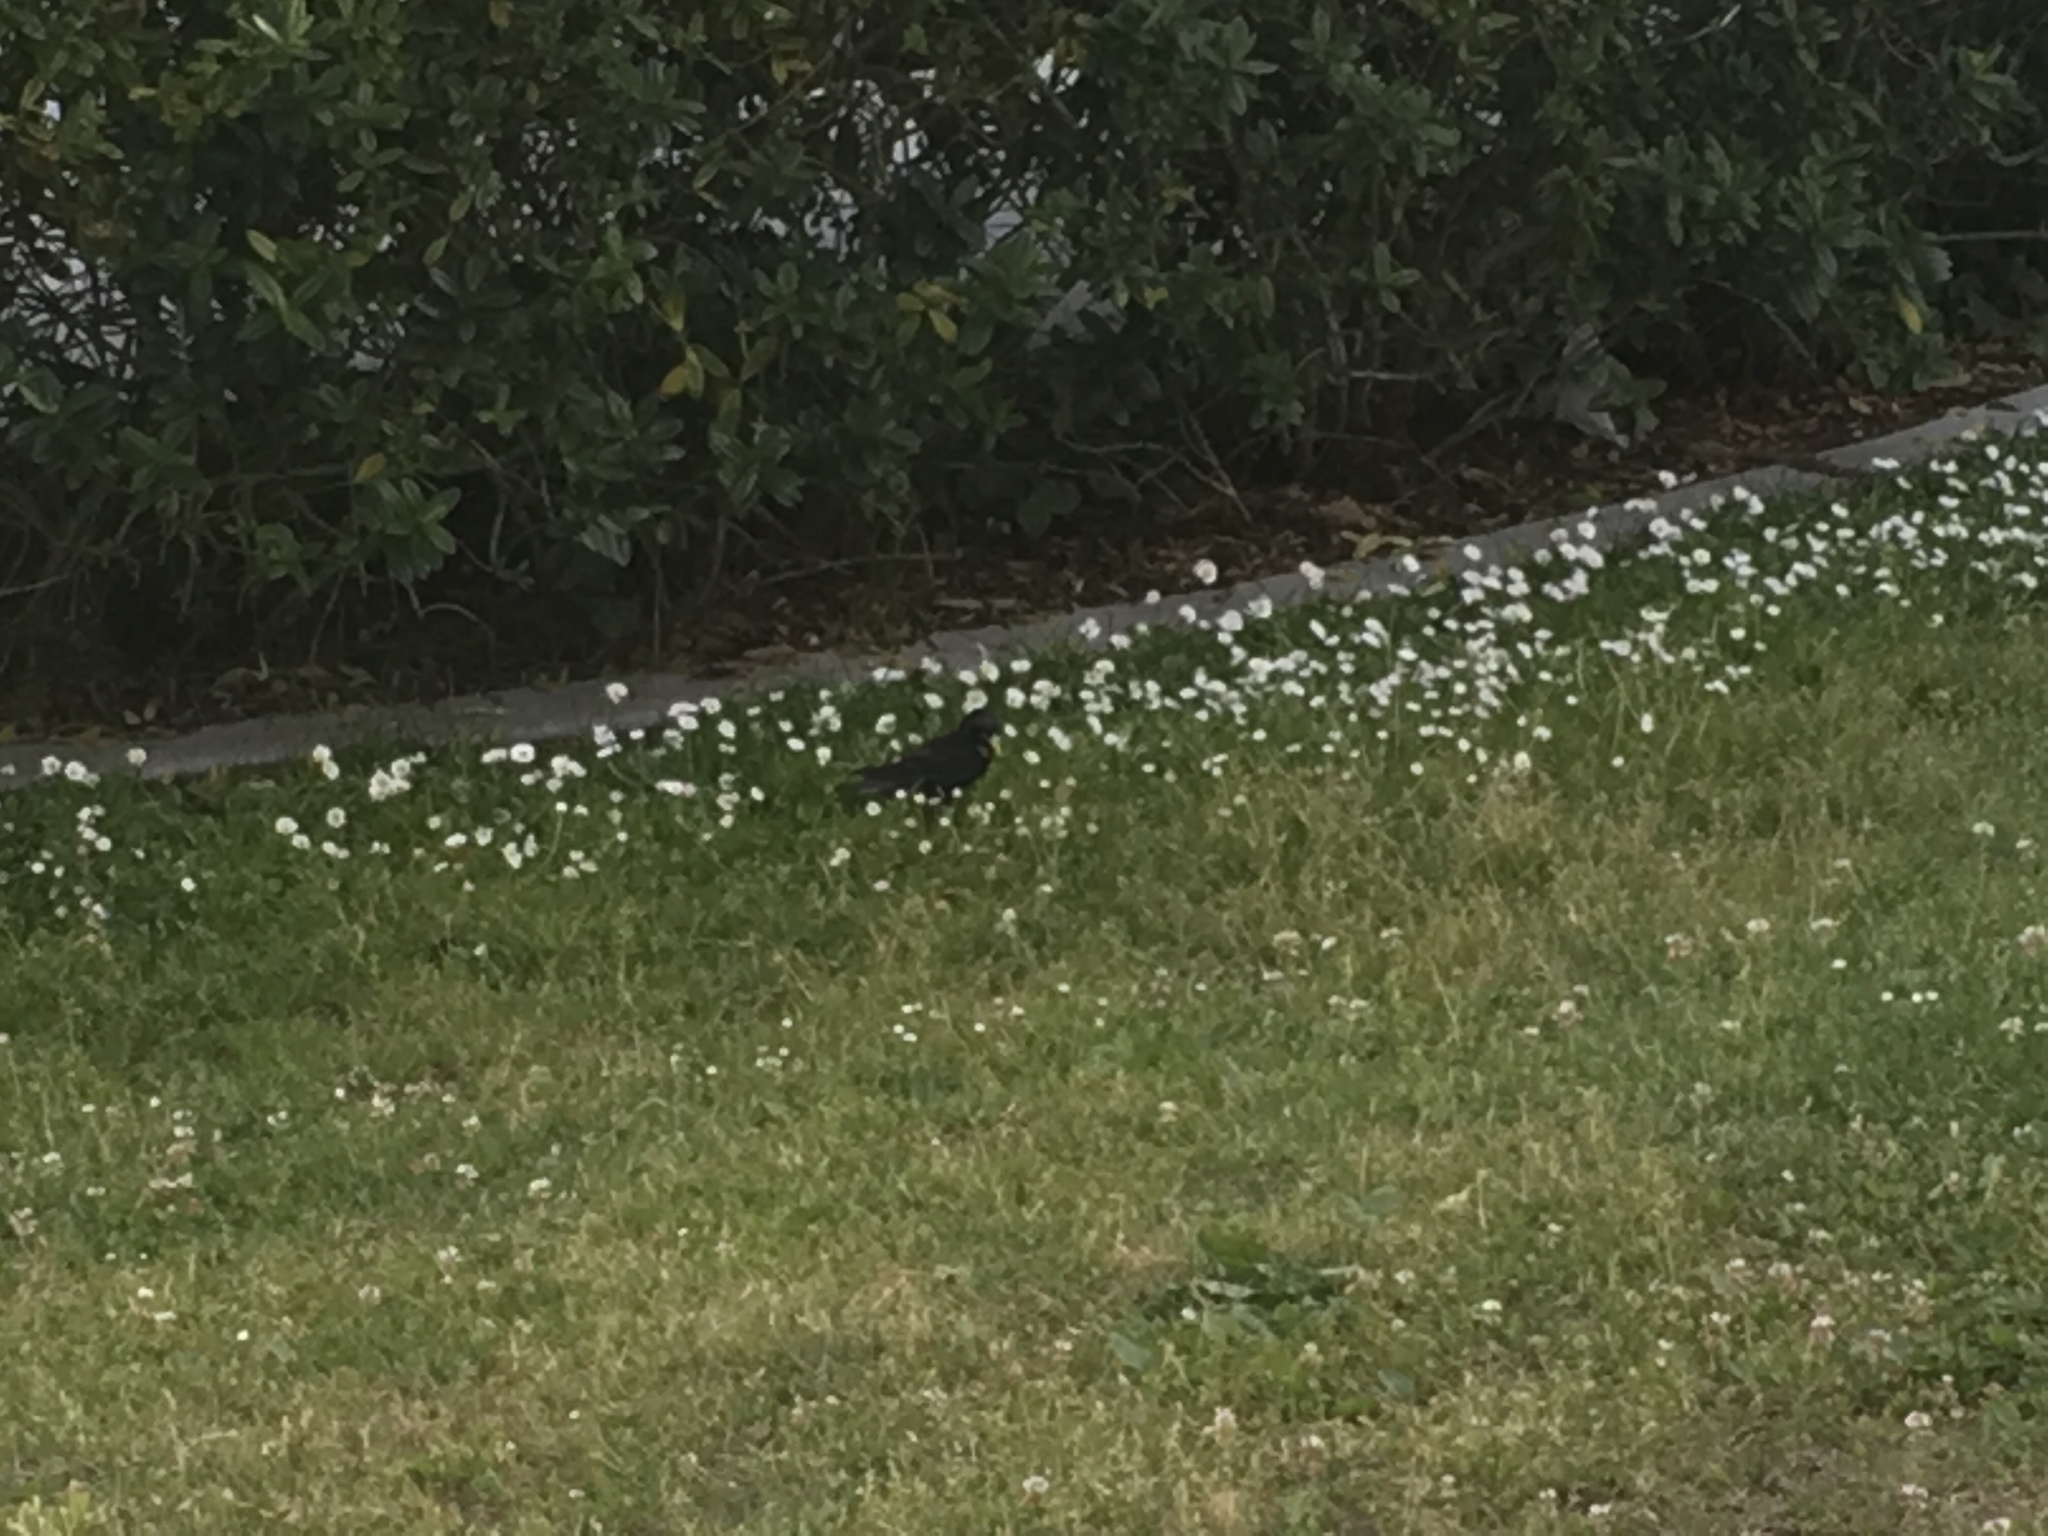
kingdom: Animalia
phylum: Chordata
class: Aves
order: Passeriformes
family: Sturnidae
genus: Sturnus
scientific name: Sturnus vulgaris
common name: Common starling
